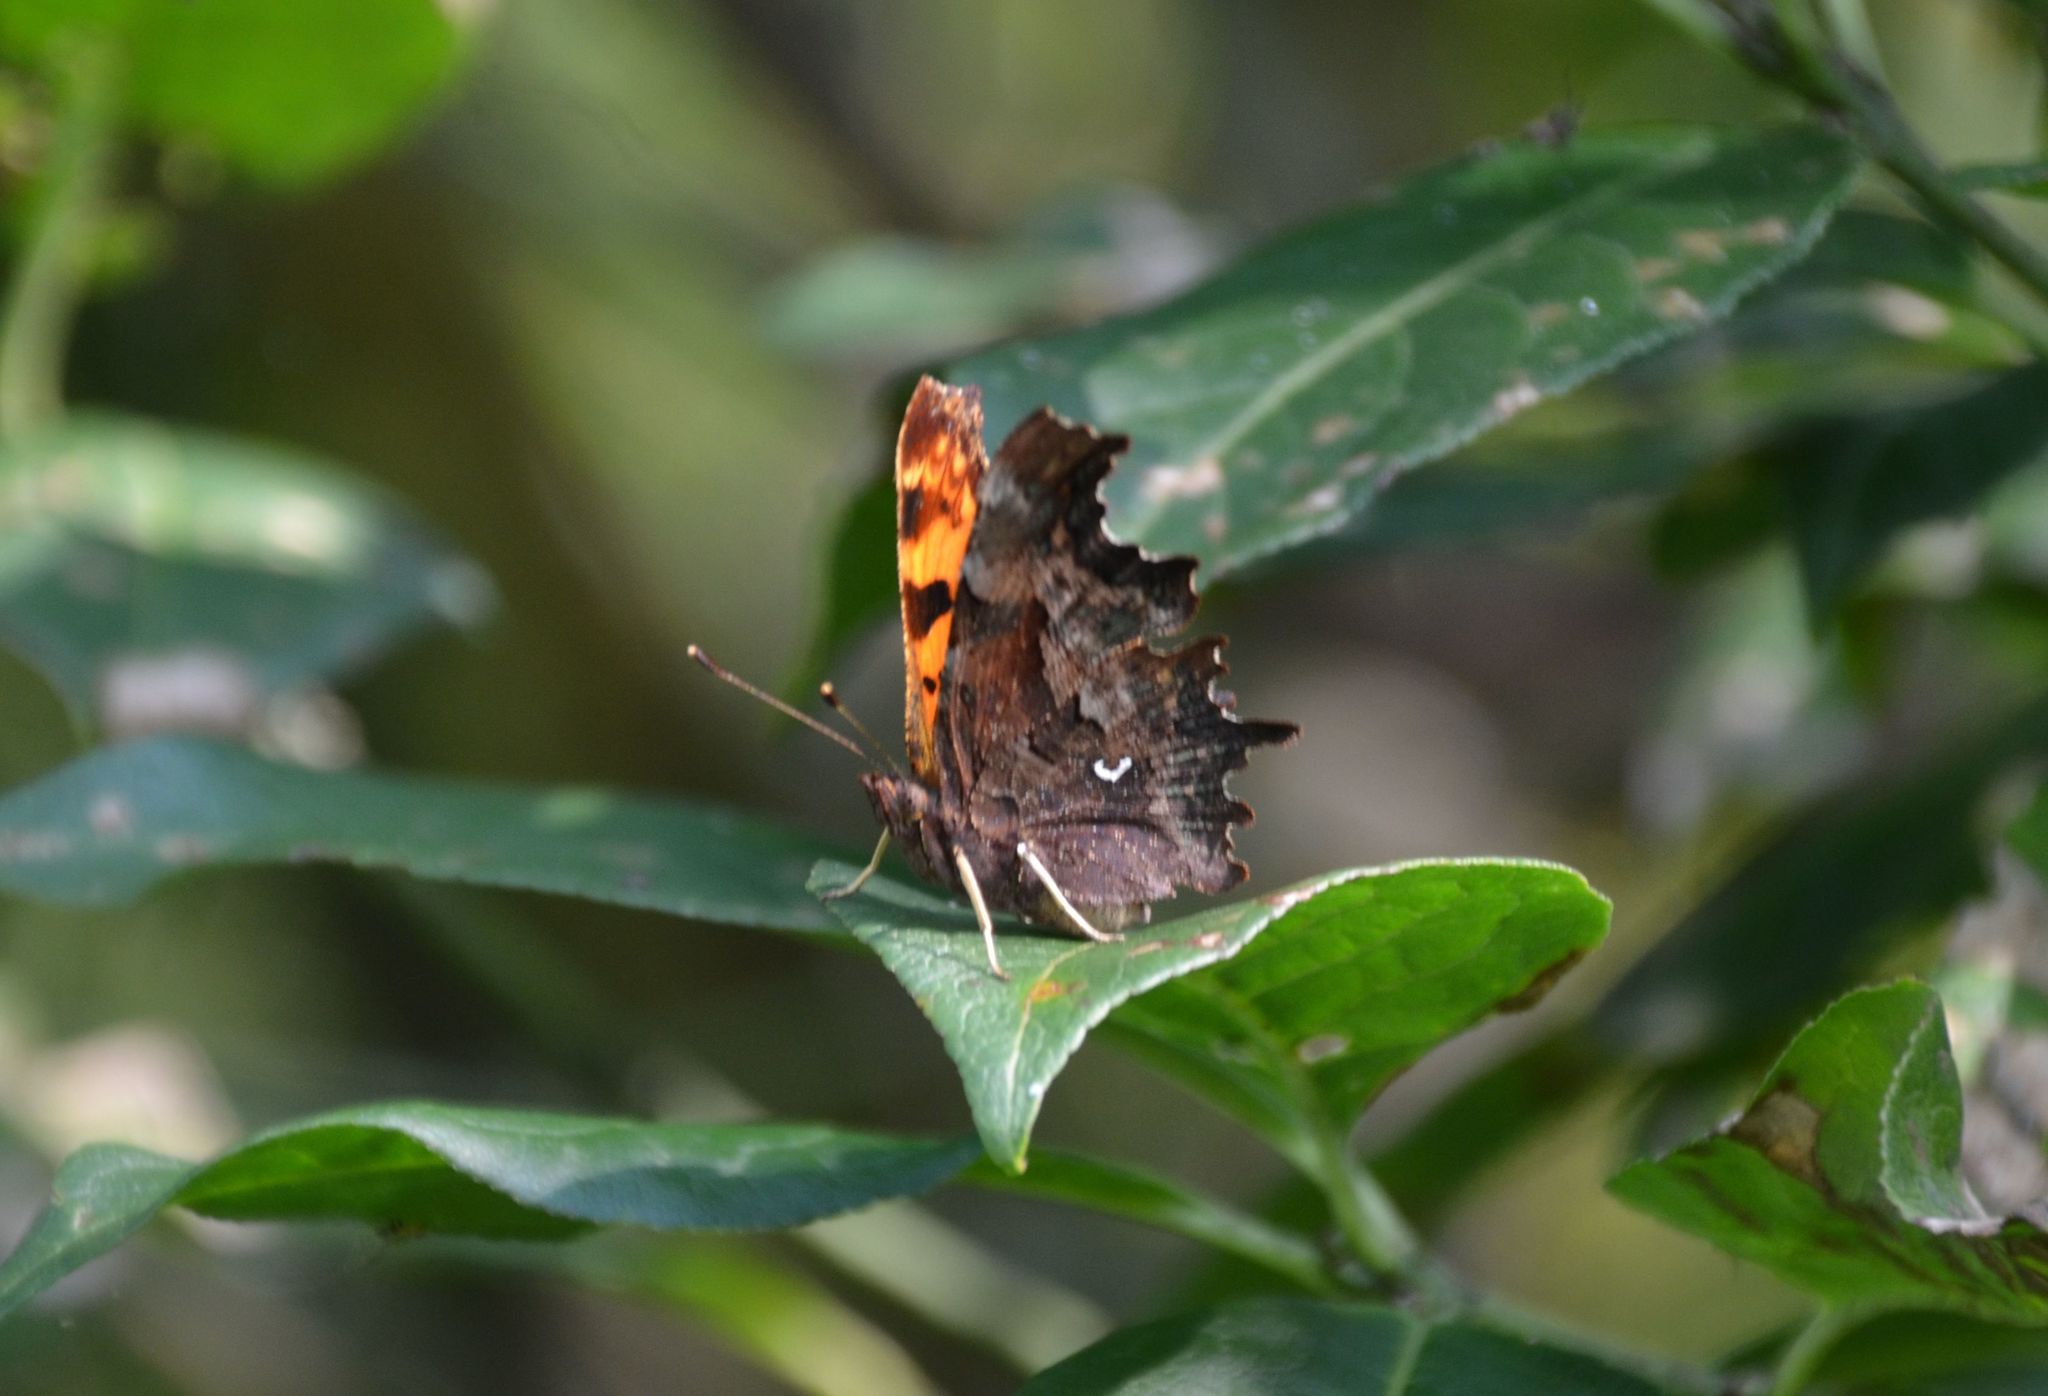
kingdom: Animalia
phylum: Arthropoda
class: Insecta
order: Lepidoptera
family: Nymphalidae
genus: Polygonia
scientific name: Polygonia c-album
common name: Comma
